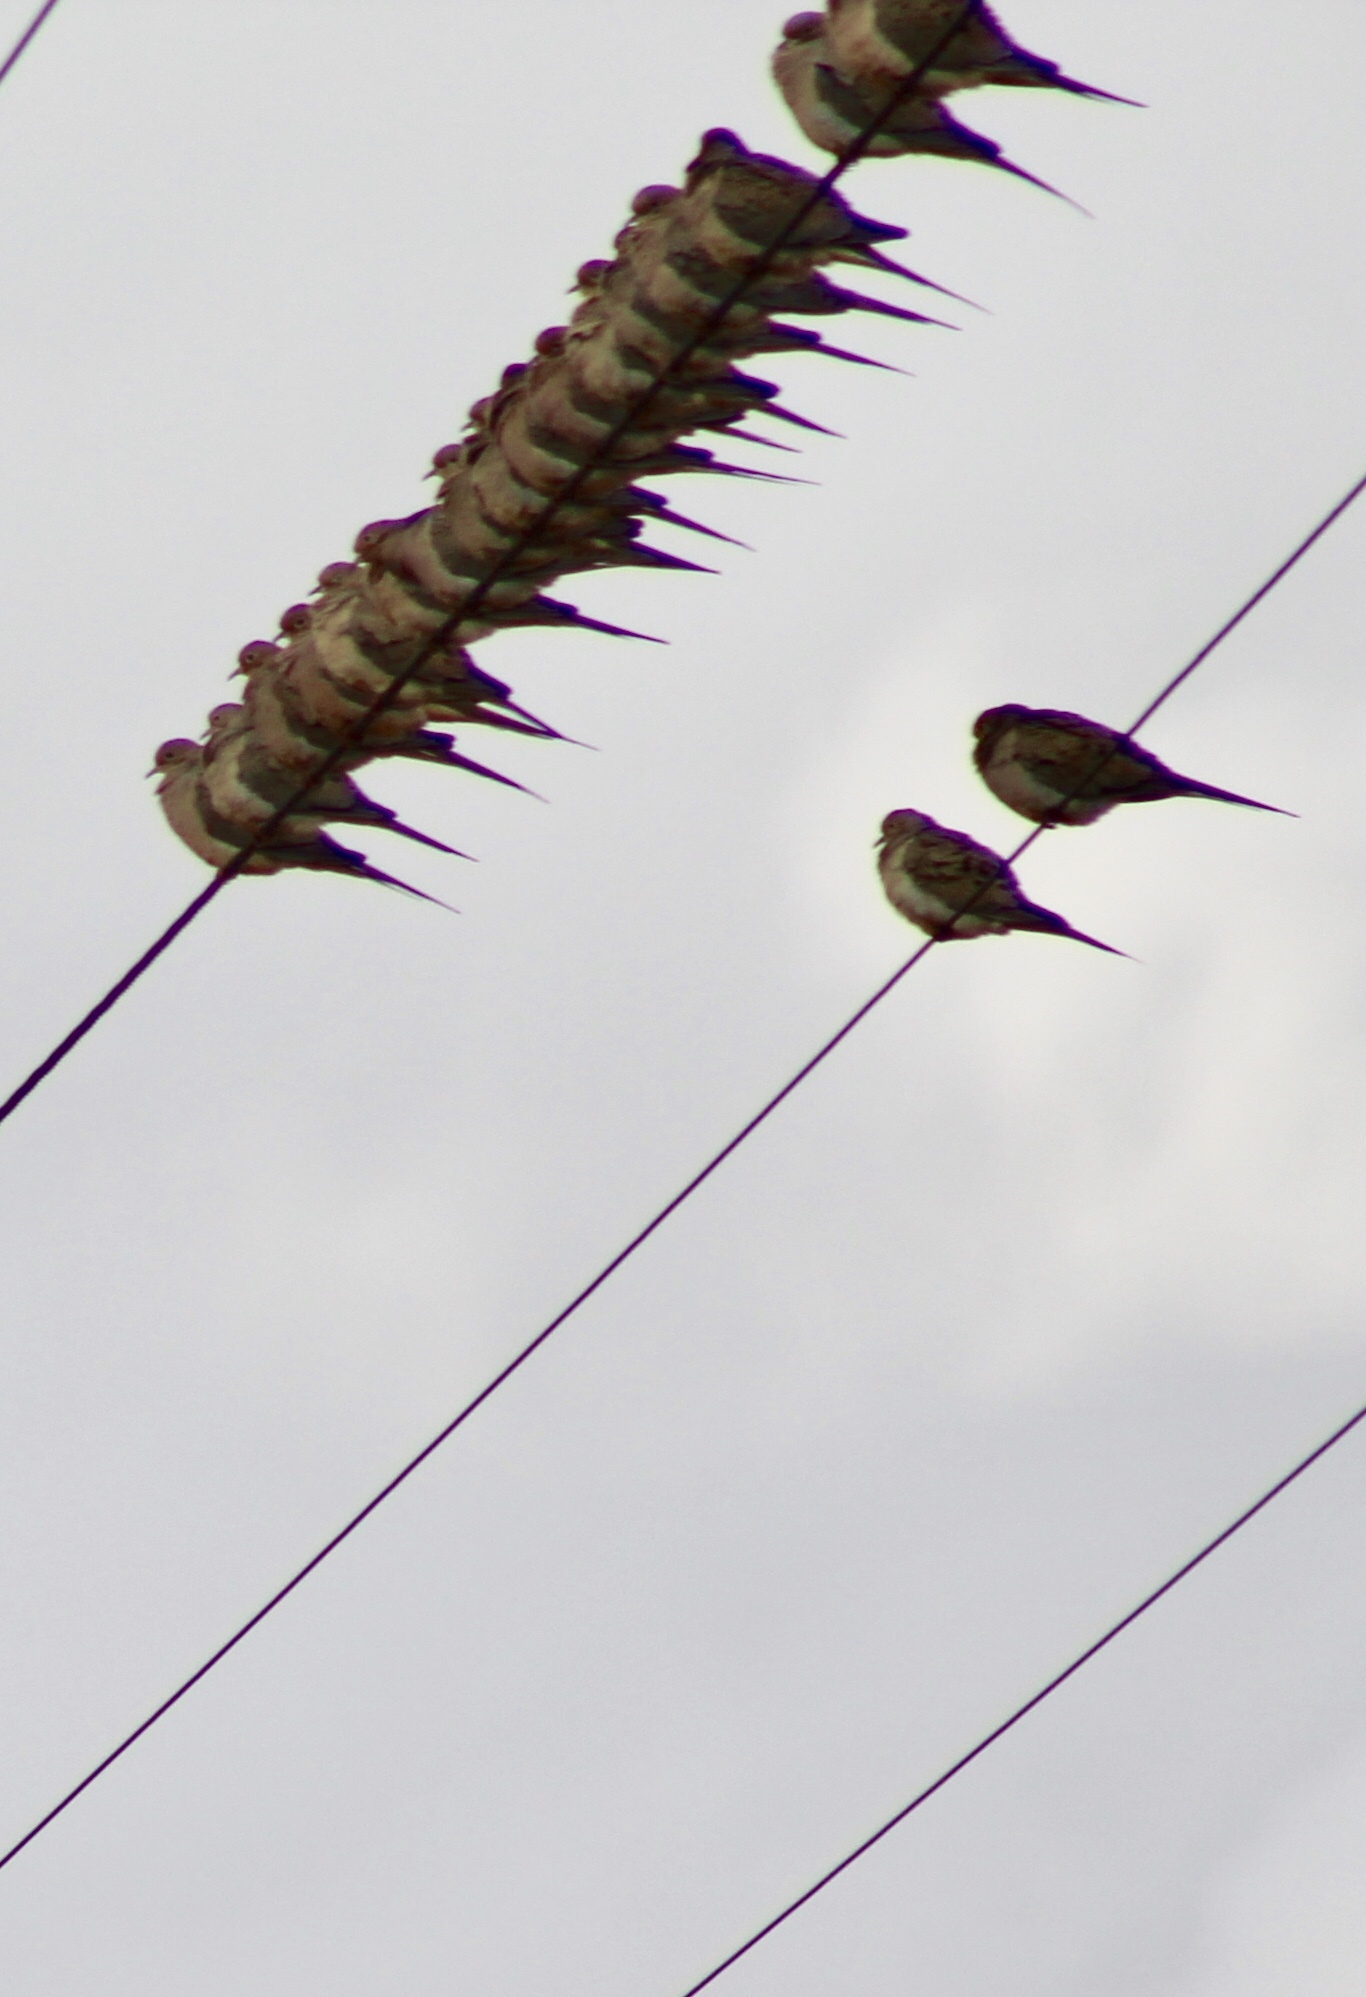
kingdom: Animalia
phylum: Chordata
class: Aves
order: Columbiformes
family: Columbidae
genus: Zenaida
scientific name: Zenaida macroura
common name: Mourning dove
